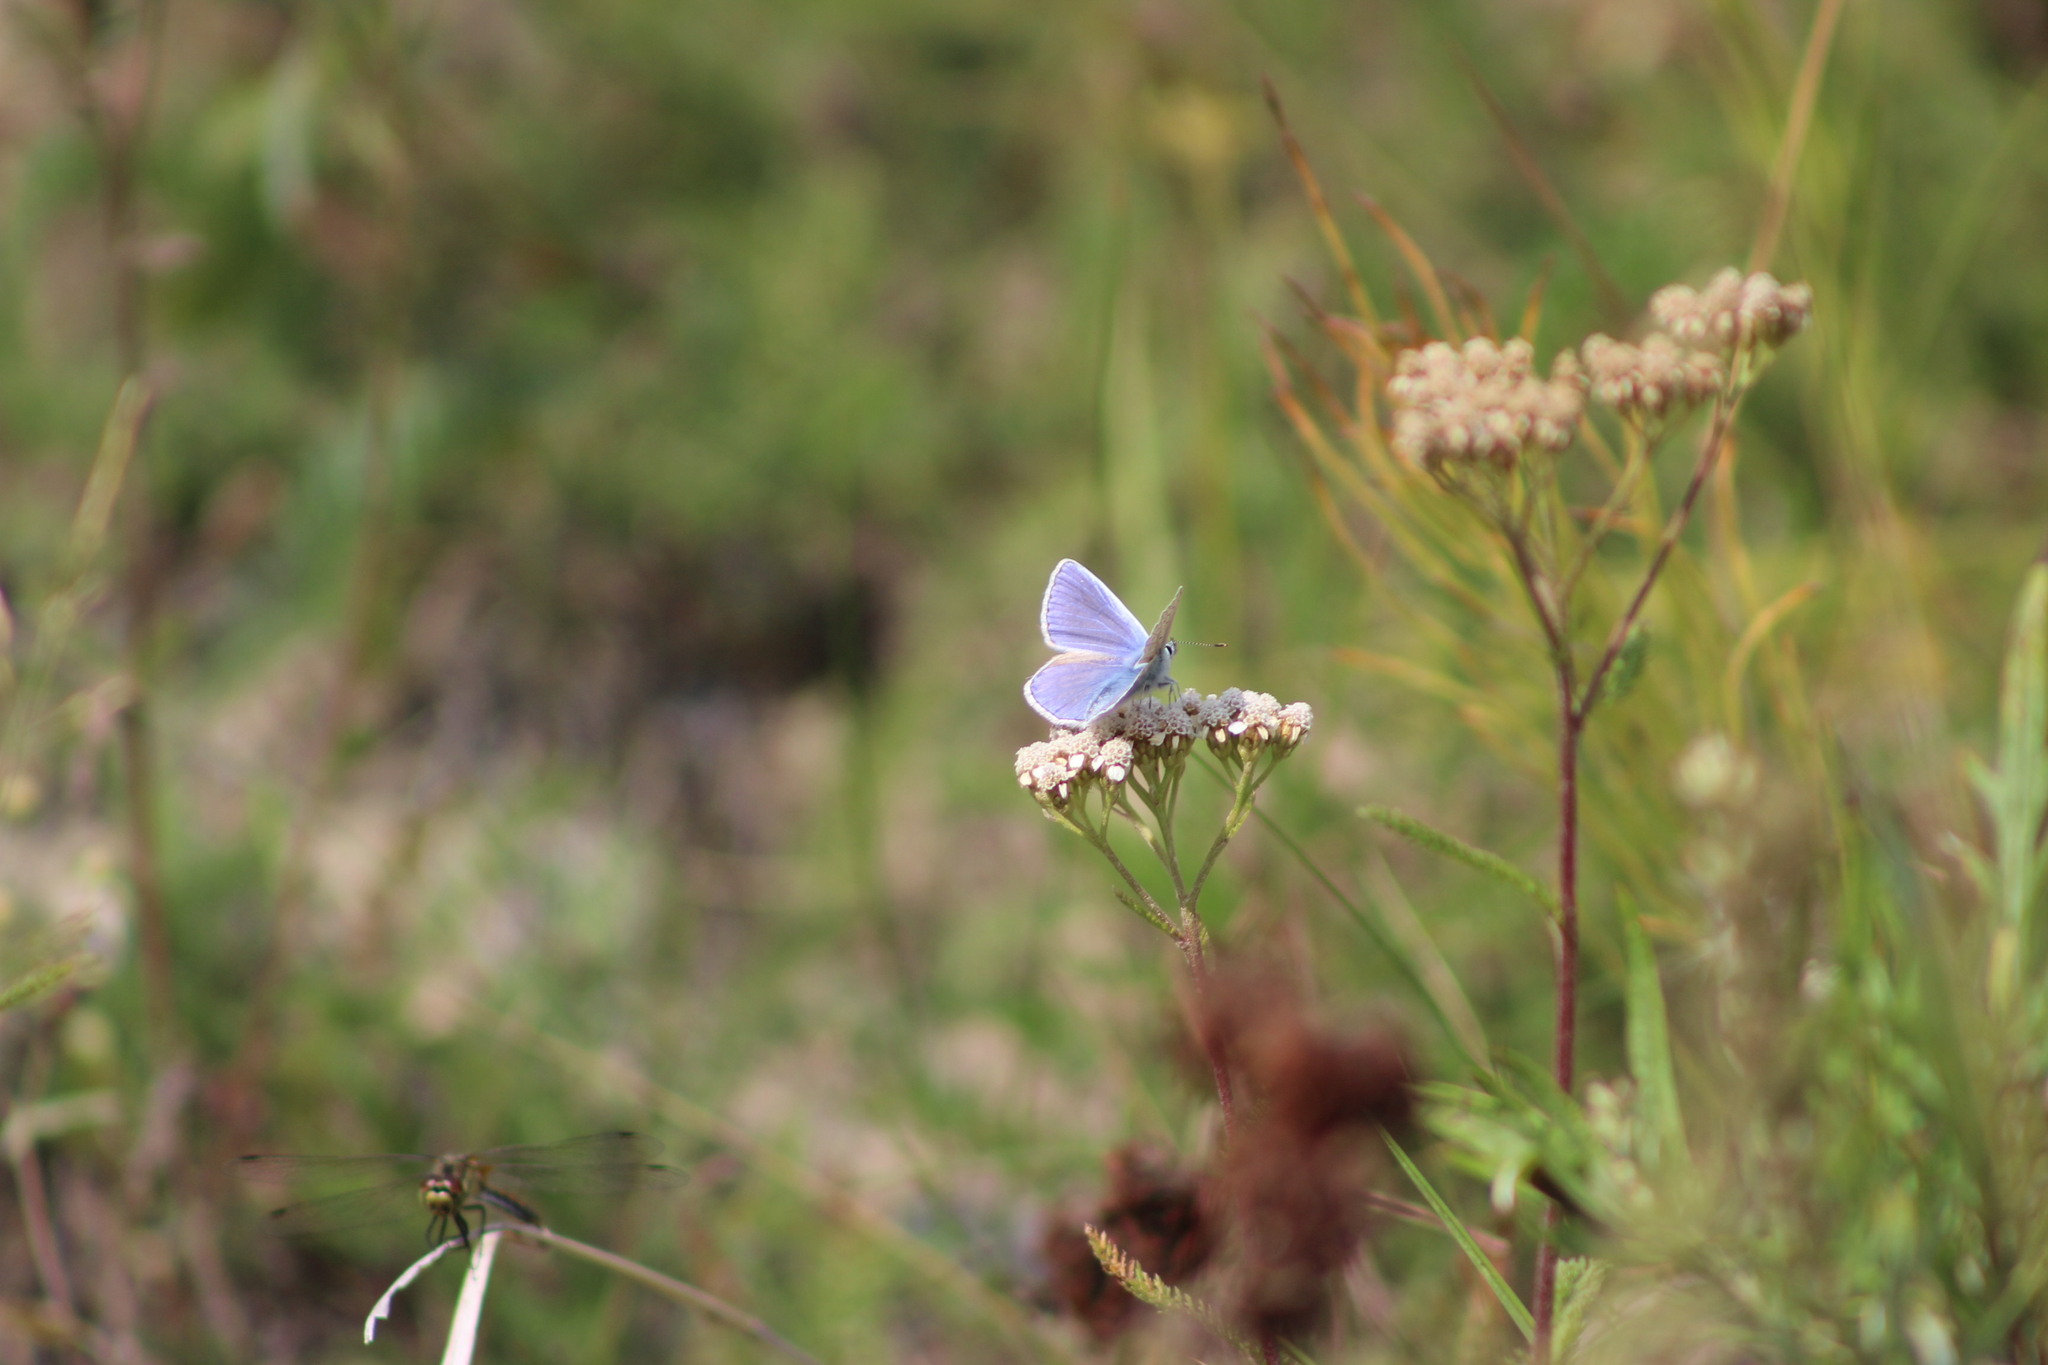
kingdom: Animalia
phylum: Arthropoda
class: Insecta
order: Lepidoptera
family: Lycaenidae
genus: Polyommatus
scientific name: Polyommatus icarus
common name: Common blue
